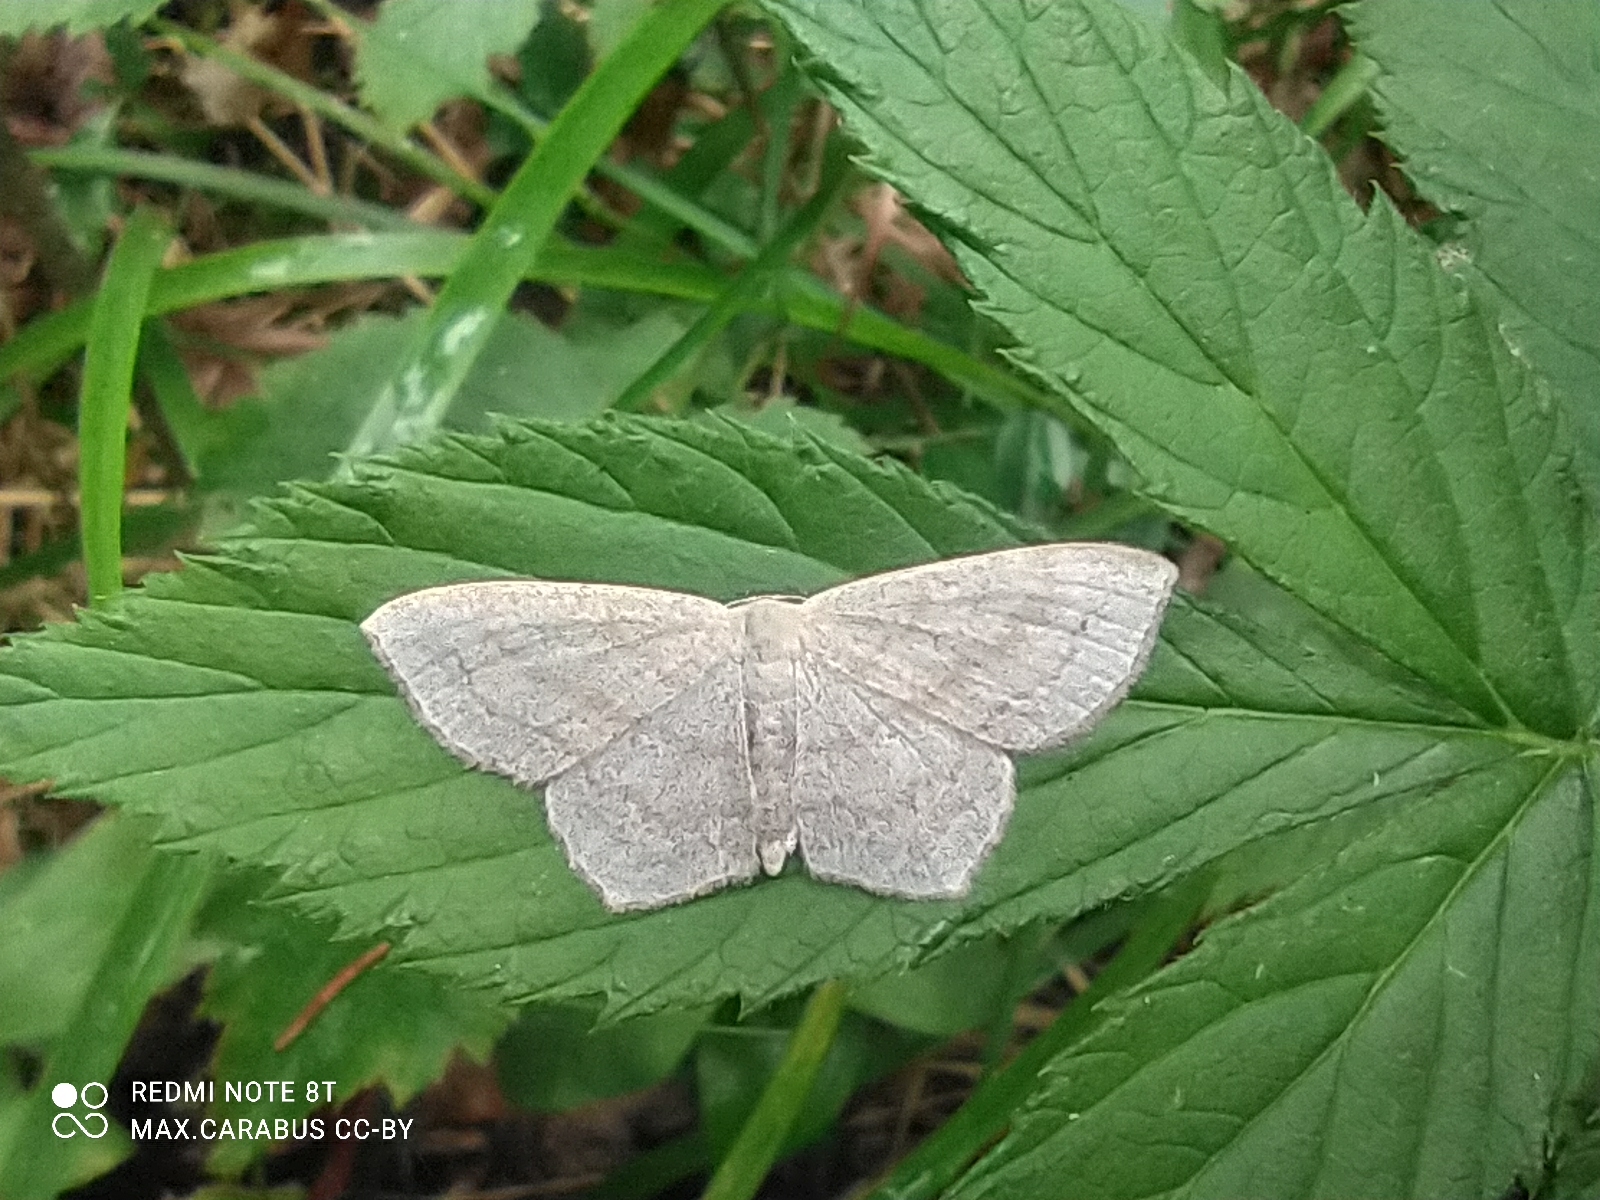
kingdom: Animalia
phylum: Arthropoda
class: Insecta
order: Lepidoptera
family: Geometridae
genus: Scopula
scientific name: Scopula nigropunctata
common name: Sub-angled wave
